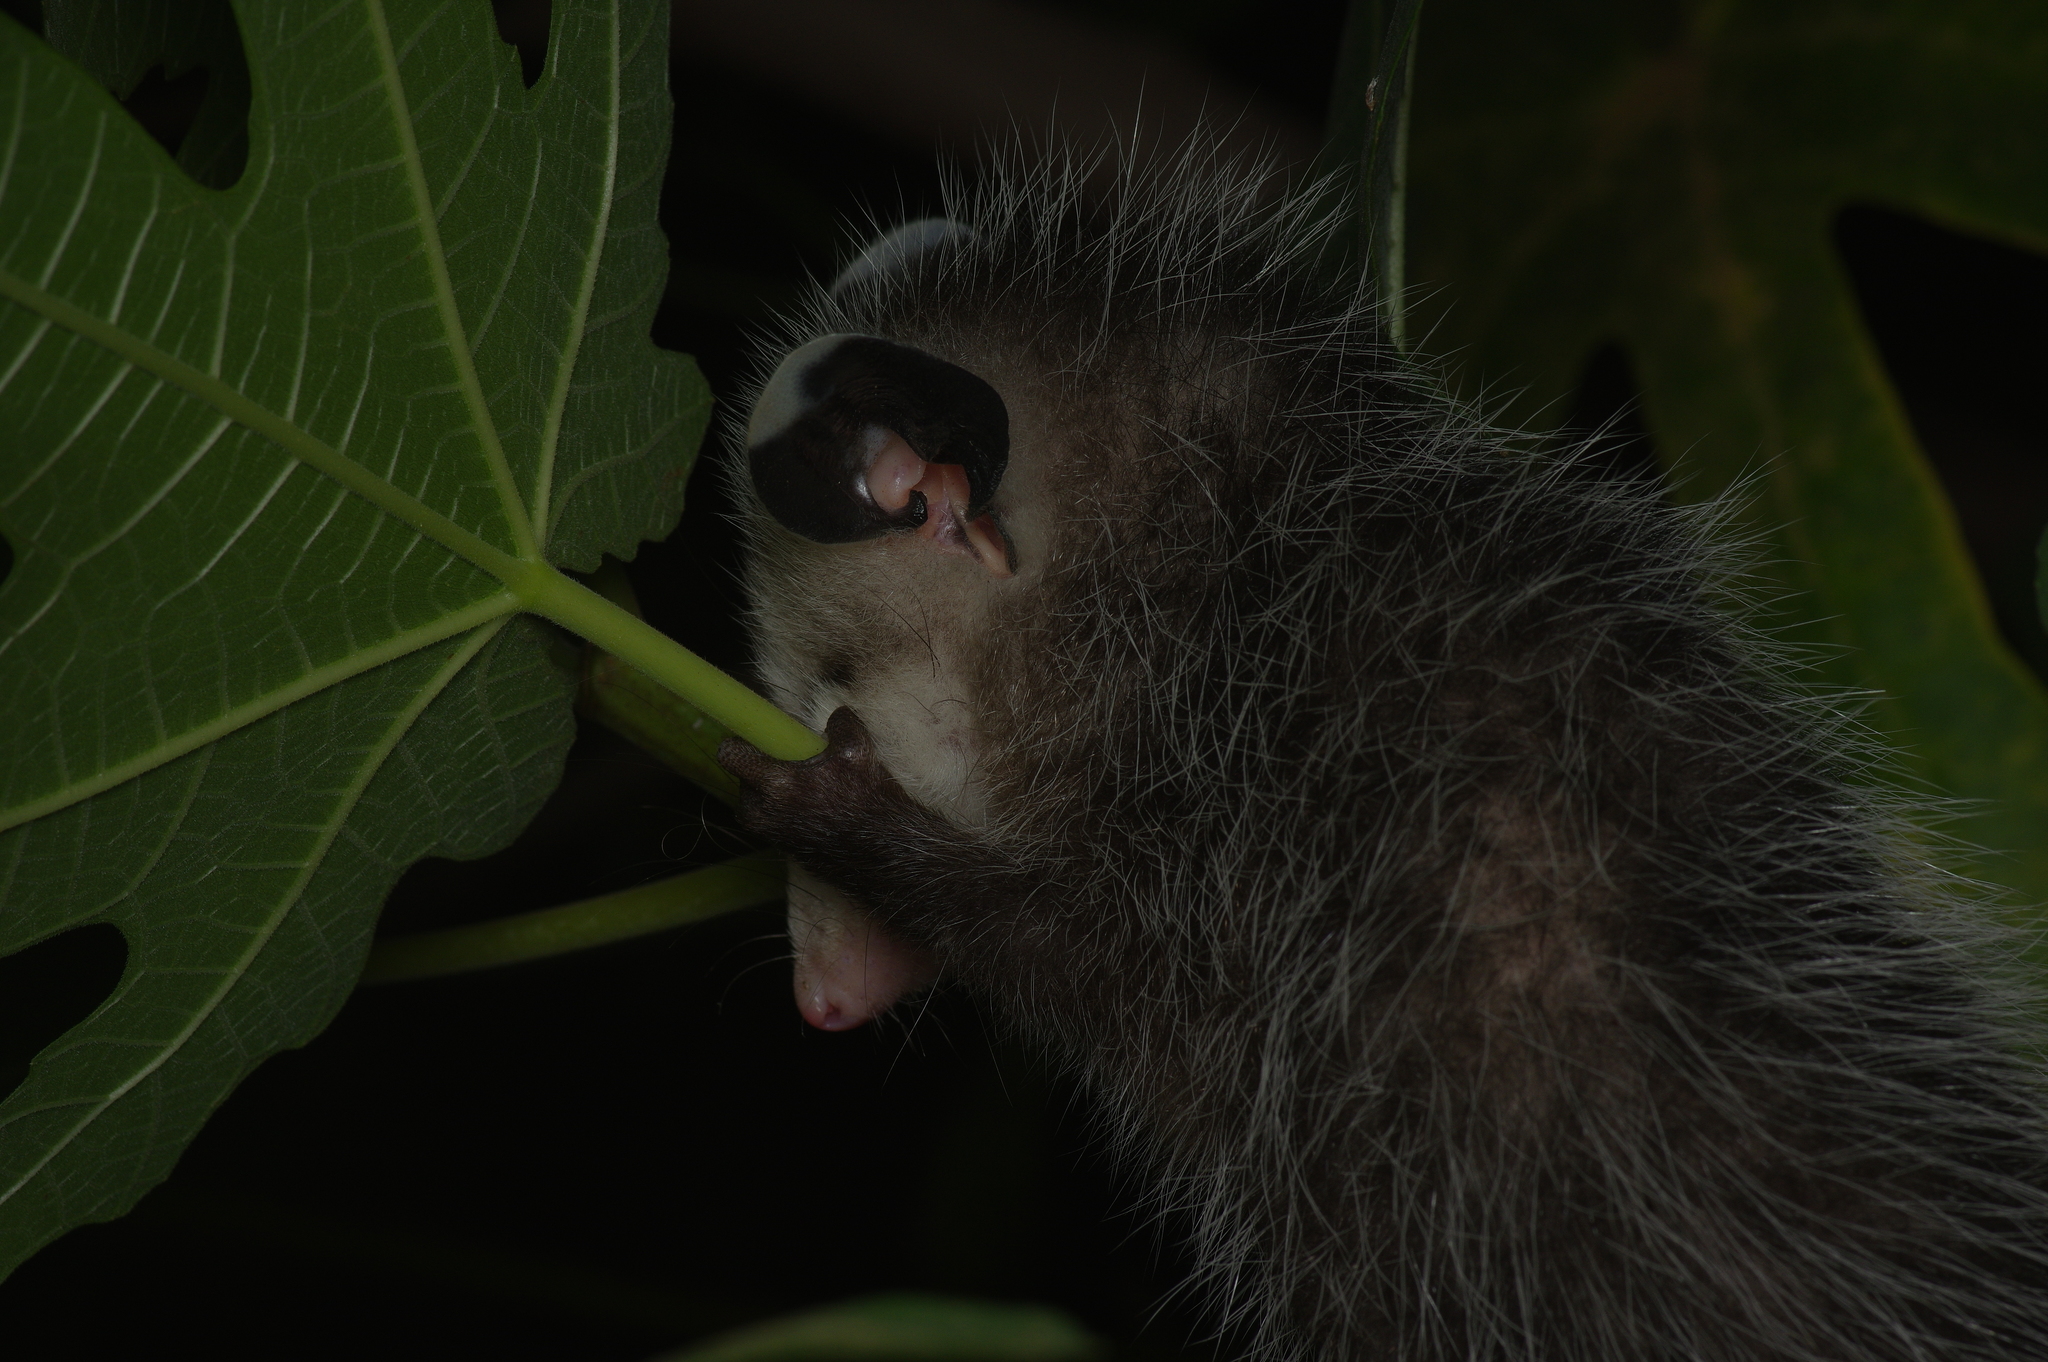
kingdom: Animalia
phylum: Chordata
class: Mammalia
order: Didelphimorphia
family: Didelphidae
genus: Didelphis
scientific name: Didelphis virginiana
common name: Virginia opossum
